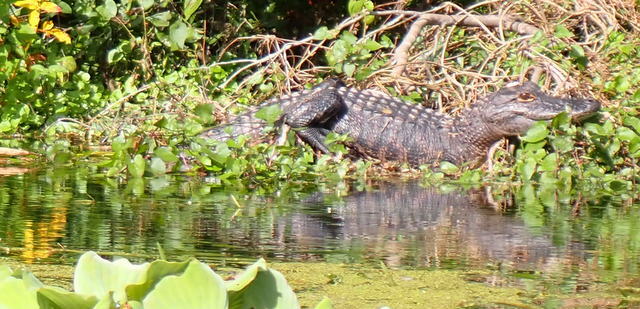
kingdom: Animalia
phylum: Chordata
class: Crocodylia
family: Alligatoridae
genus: Alligator
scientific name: Alligator mississippiensis
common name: American alligator
